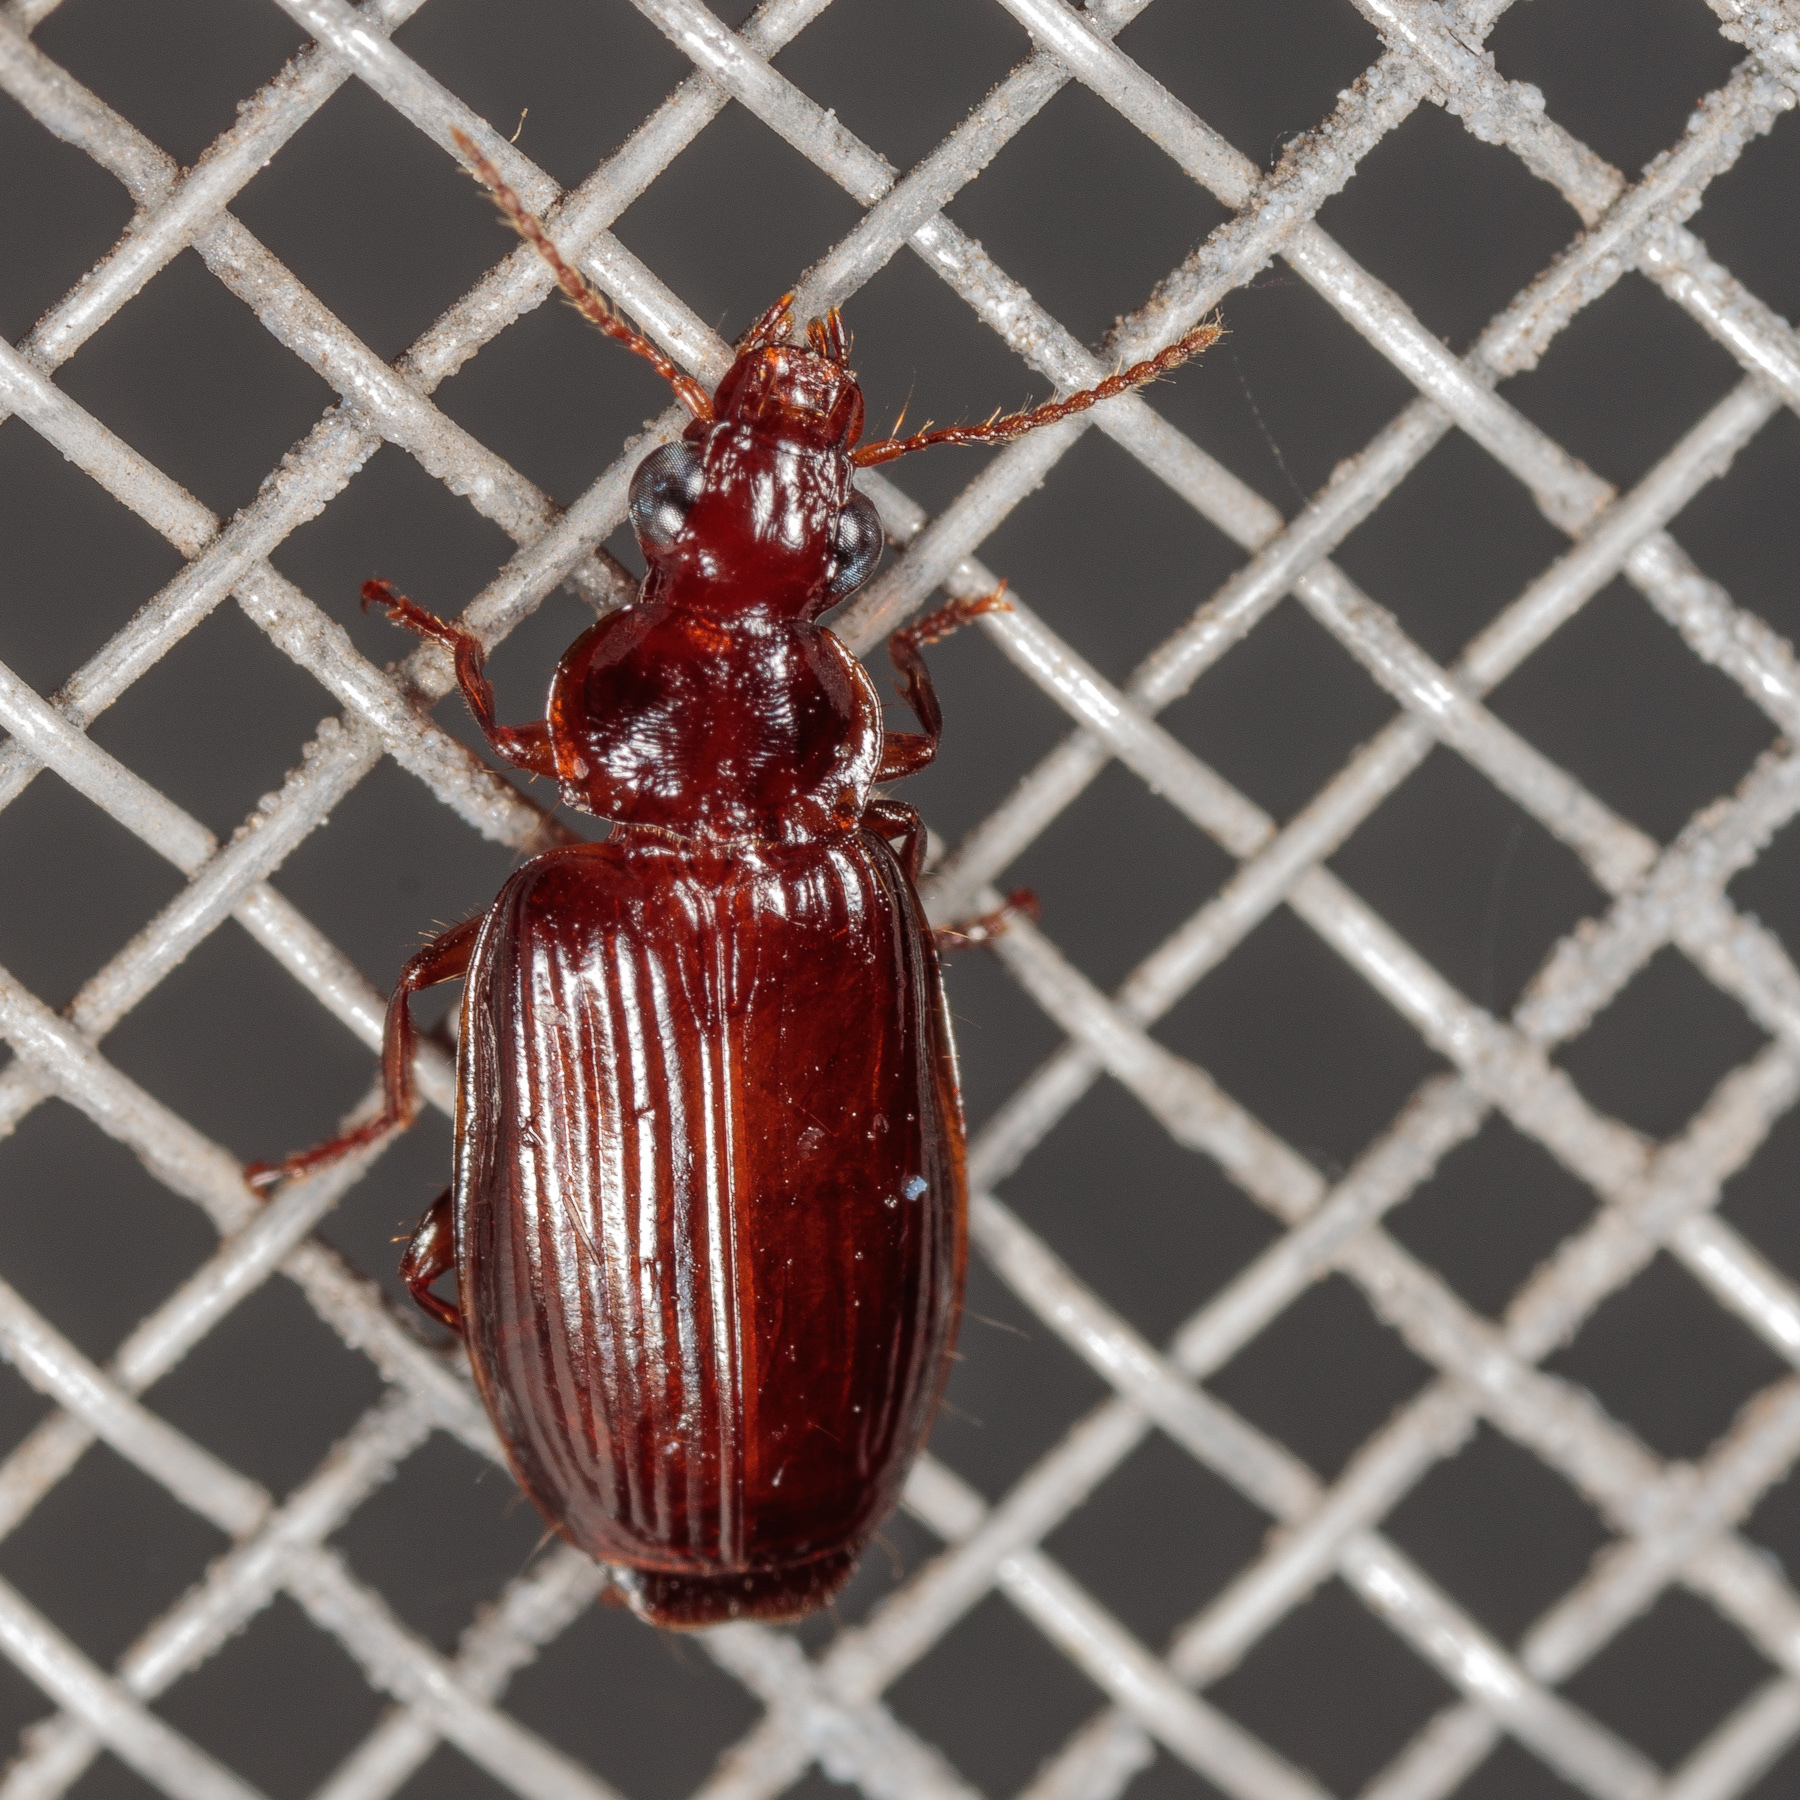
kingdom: Animalia
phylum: Arthropoda
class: Insecta
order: Coleoptera
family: Carabidae
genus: Plochionus
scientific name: Plochionus timidus
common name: Timid harp ground beetle
